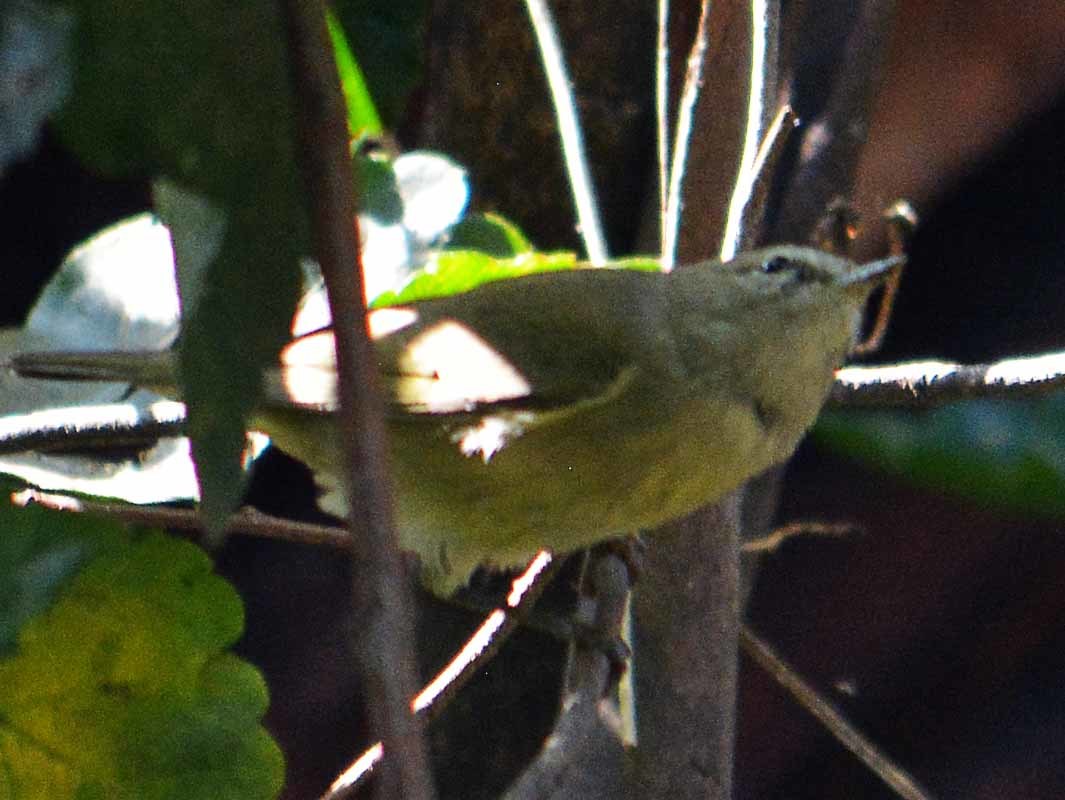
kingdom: Animalia
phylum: Chordata
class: Aves
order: Passeriformes
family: Parulidae
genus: Leiothlypis
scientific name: Leiothlypis celata
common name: Orange-crowned warbler
